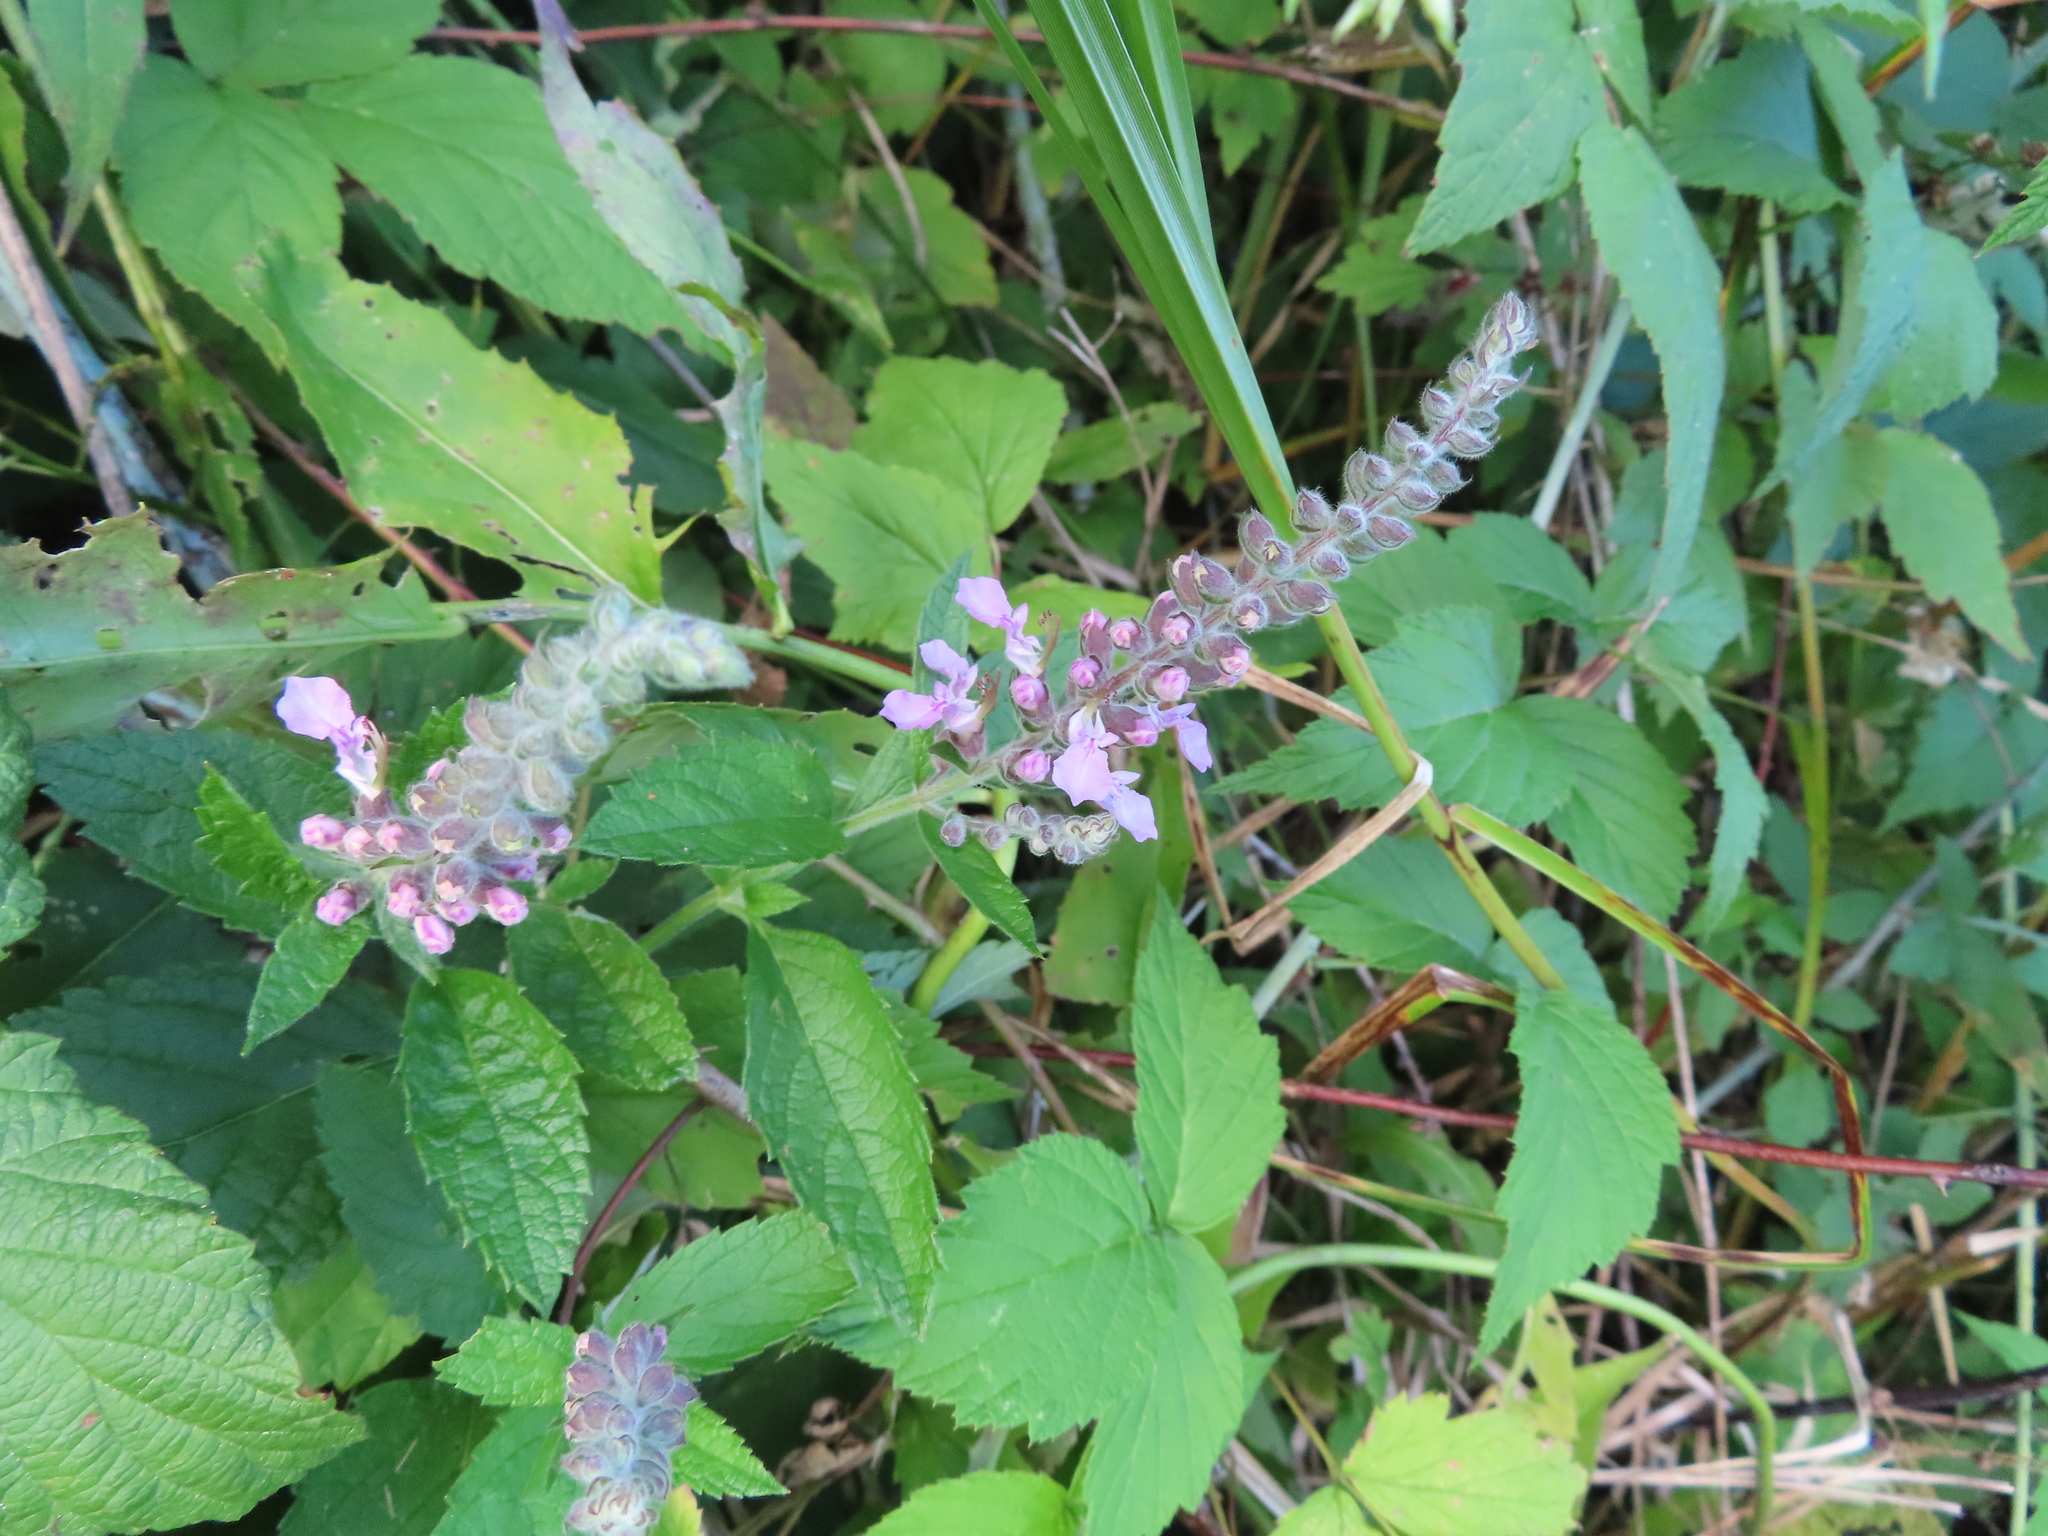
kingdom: Plantae
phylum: Tracheophyta
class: Magnoliopsida
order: Lamiales
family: Lamiaceae
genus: Teucrium
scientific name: Teucrium canadense
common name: American germander
